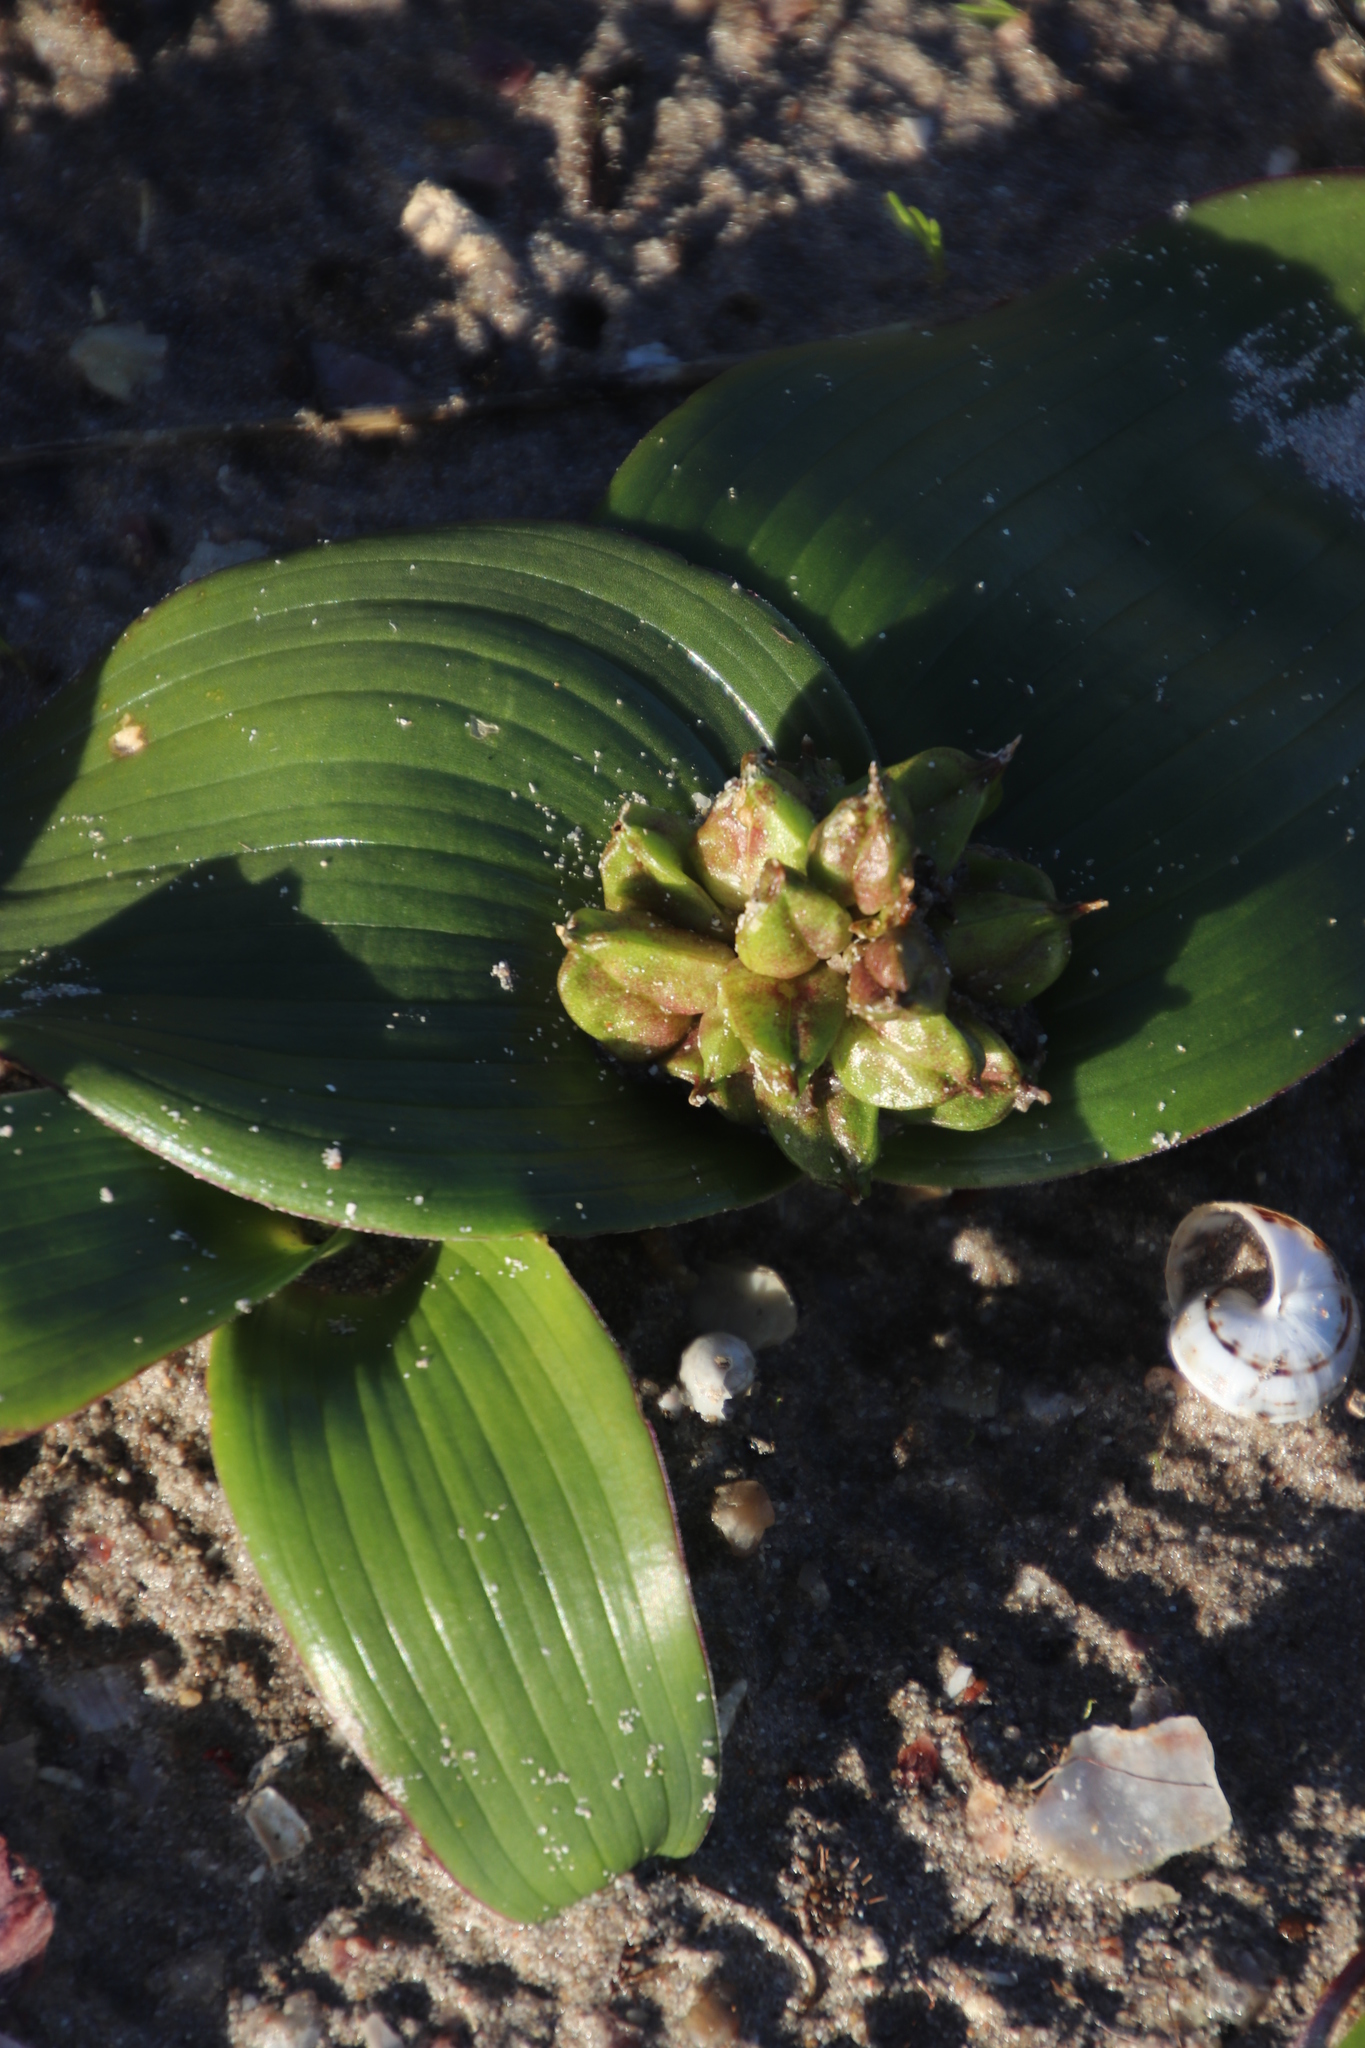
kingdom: Plantae
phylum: Tracheophyta
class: Liliopsida
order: Asparagales
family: Asparagaceae
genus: Daubenya
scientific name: Daubenya zeyheri
